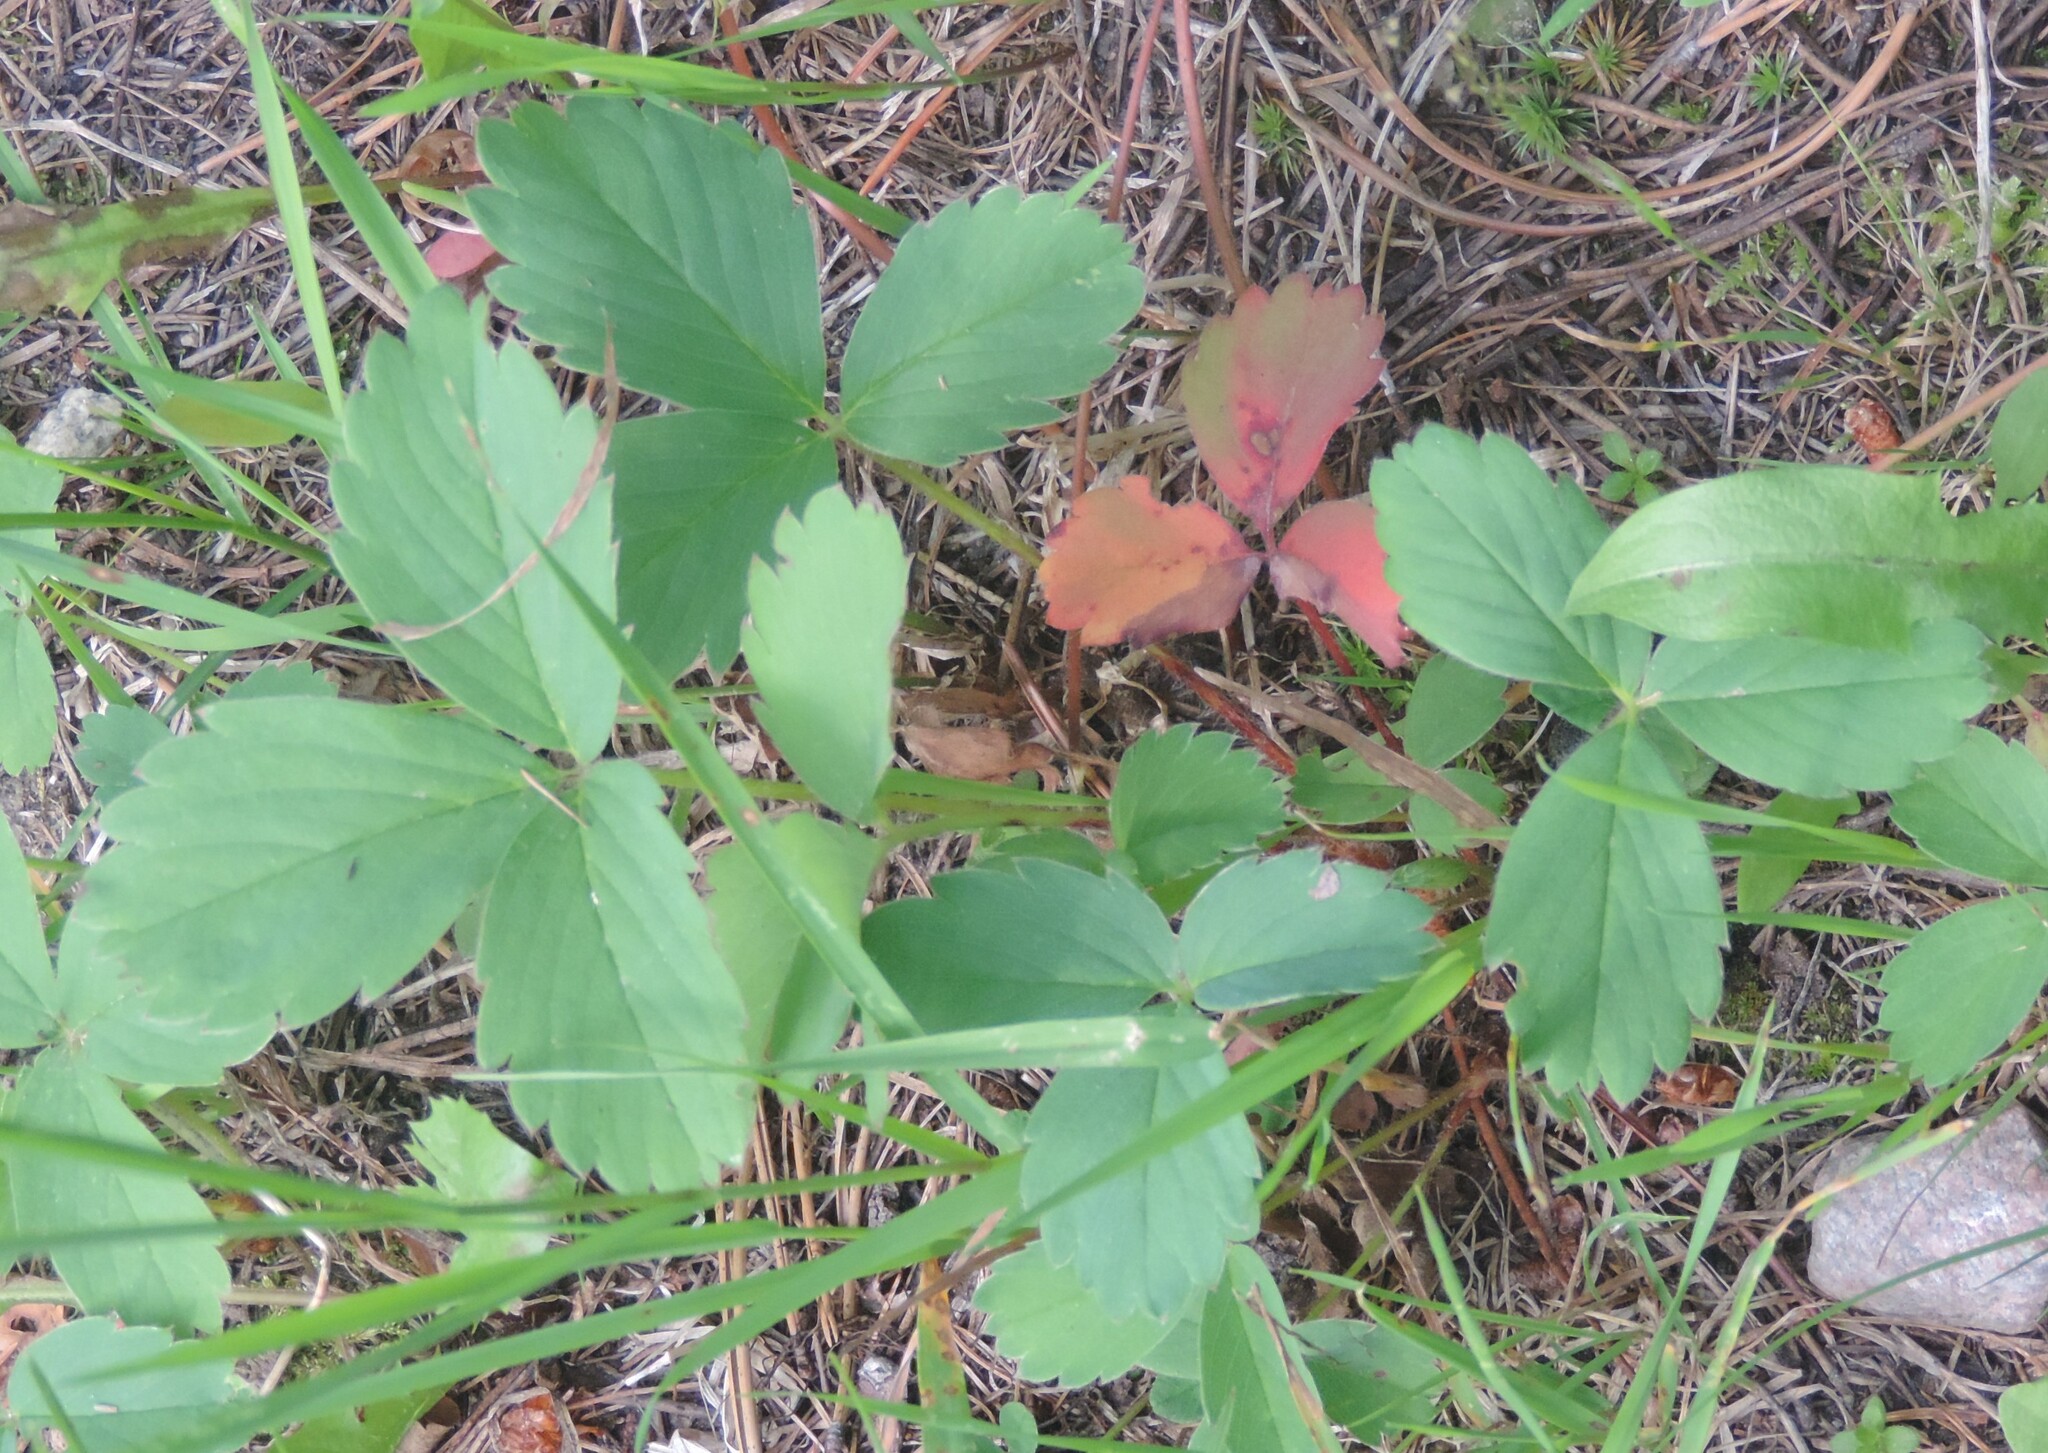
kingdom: Plantae
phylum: Tracheophyta
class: Magnoliopsida
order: Rosales
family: Rosaceae
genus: Fragaria
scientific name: Fragaria virginiana
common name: Thickleaved wild strawberry
